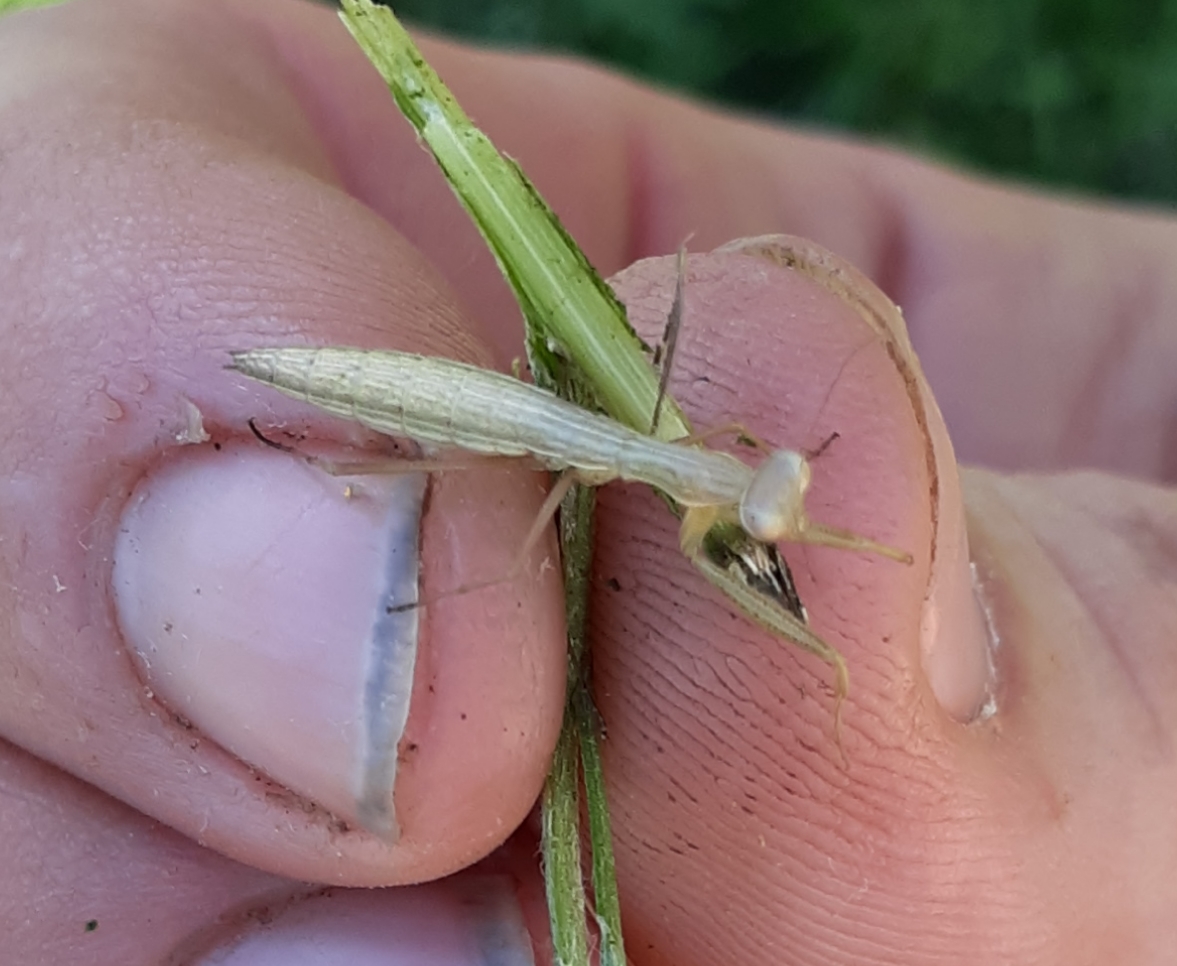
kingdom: Animalia
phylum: Arthropoda
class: Insecta
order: Mantodea
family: Mantidae
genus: Mantis
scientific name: Mantis religiosa
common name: Praying mantis
